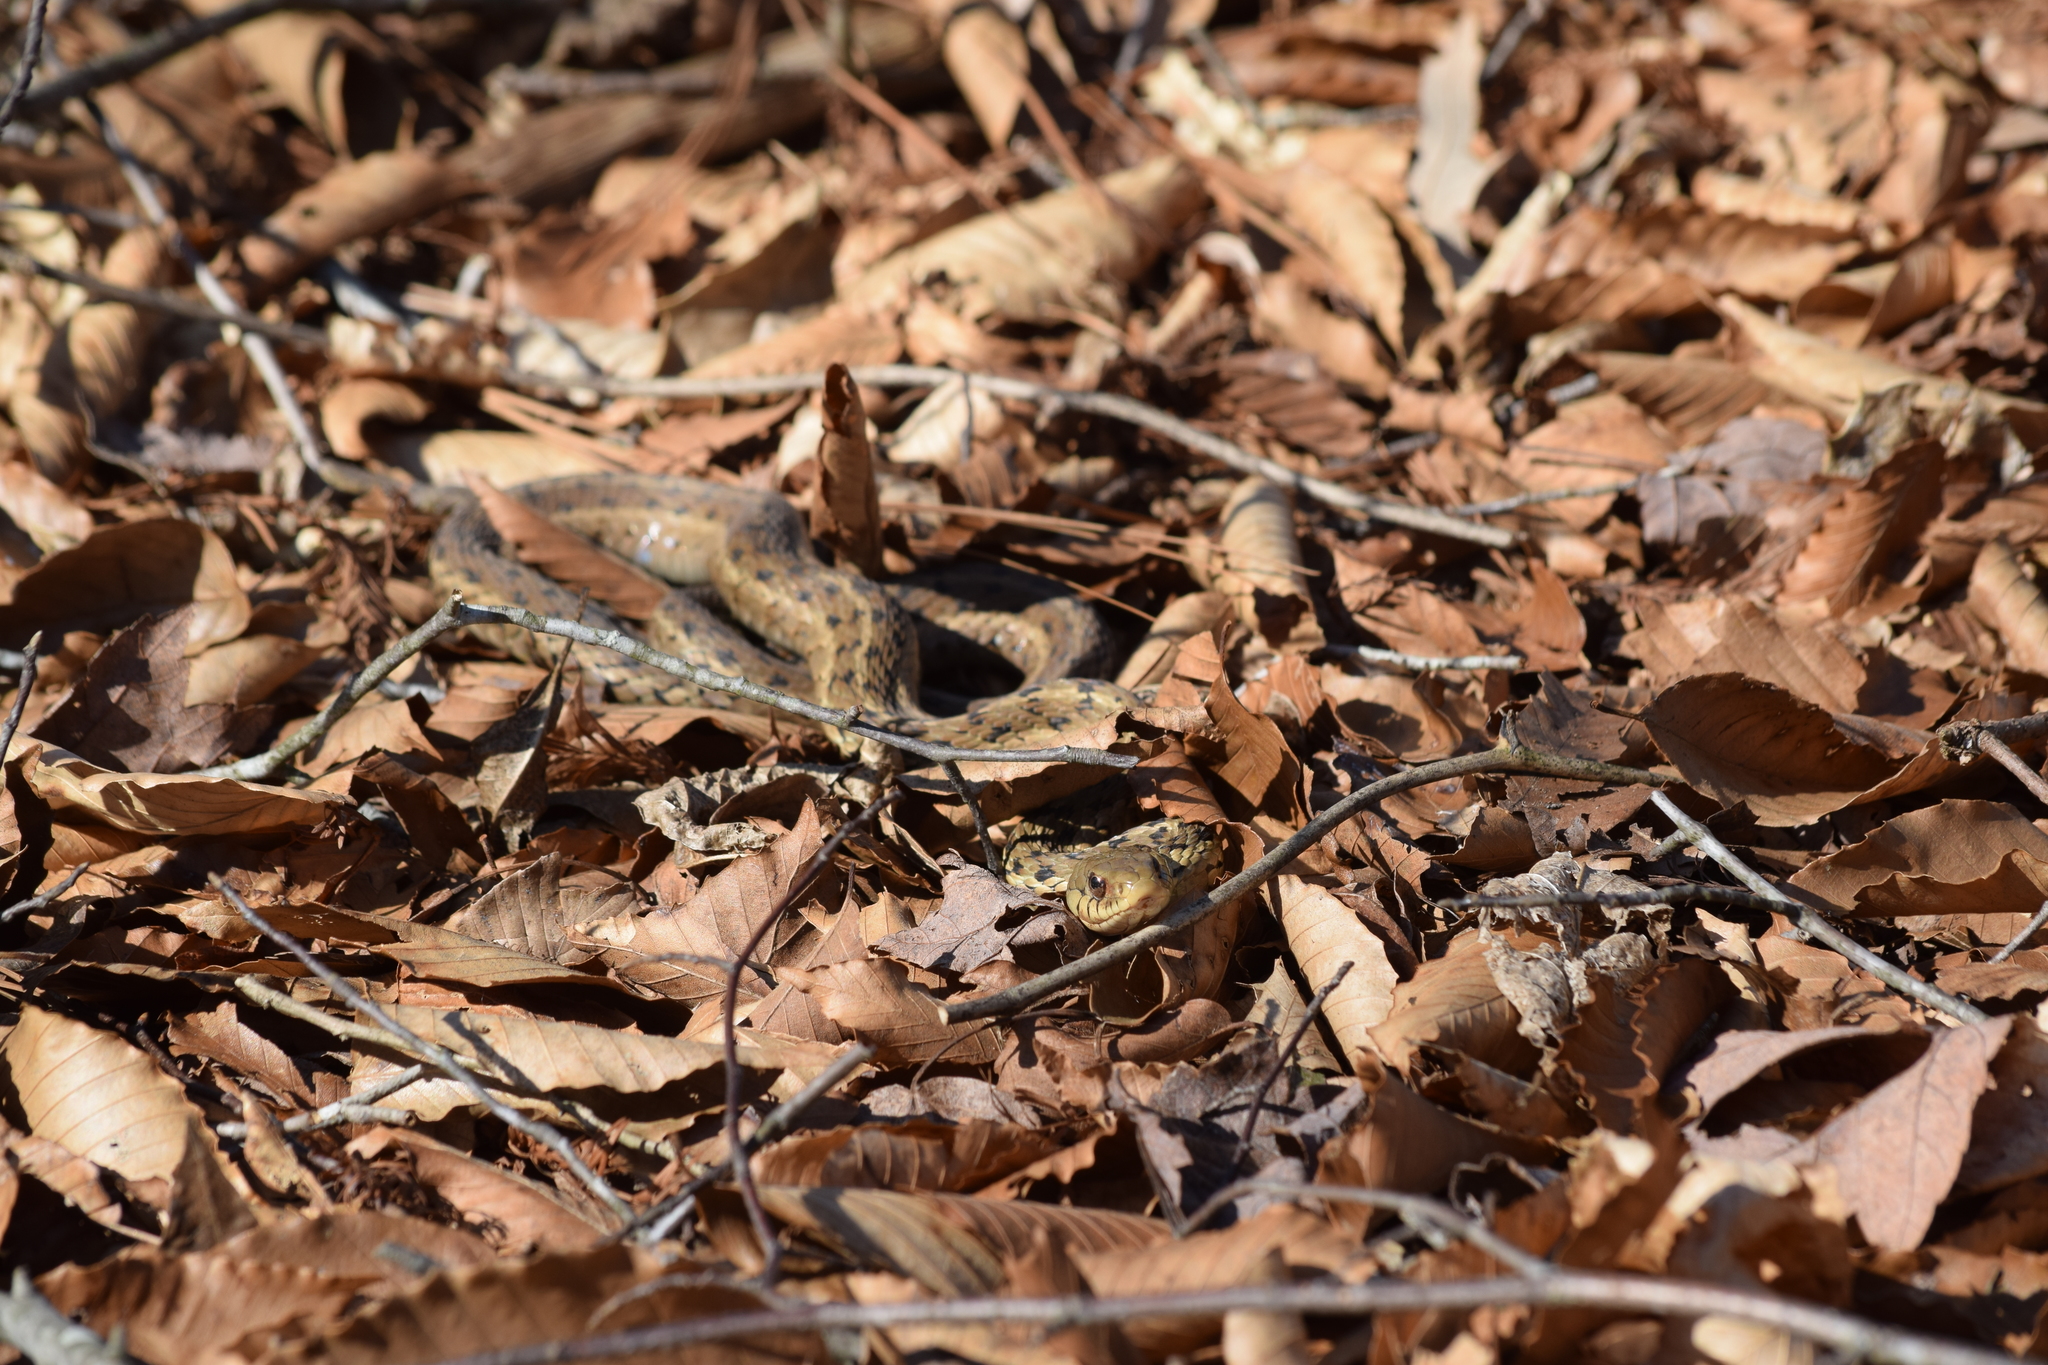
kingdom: Animalia
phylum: Chordata
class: Squamata
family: Colubridae
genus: Thamnophis
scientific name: Thamnophis sirtalis
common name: Common garter snake
